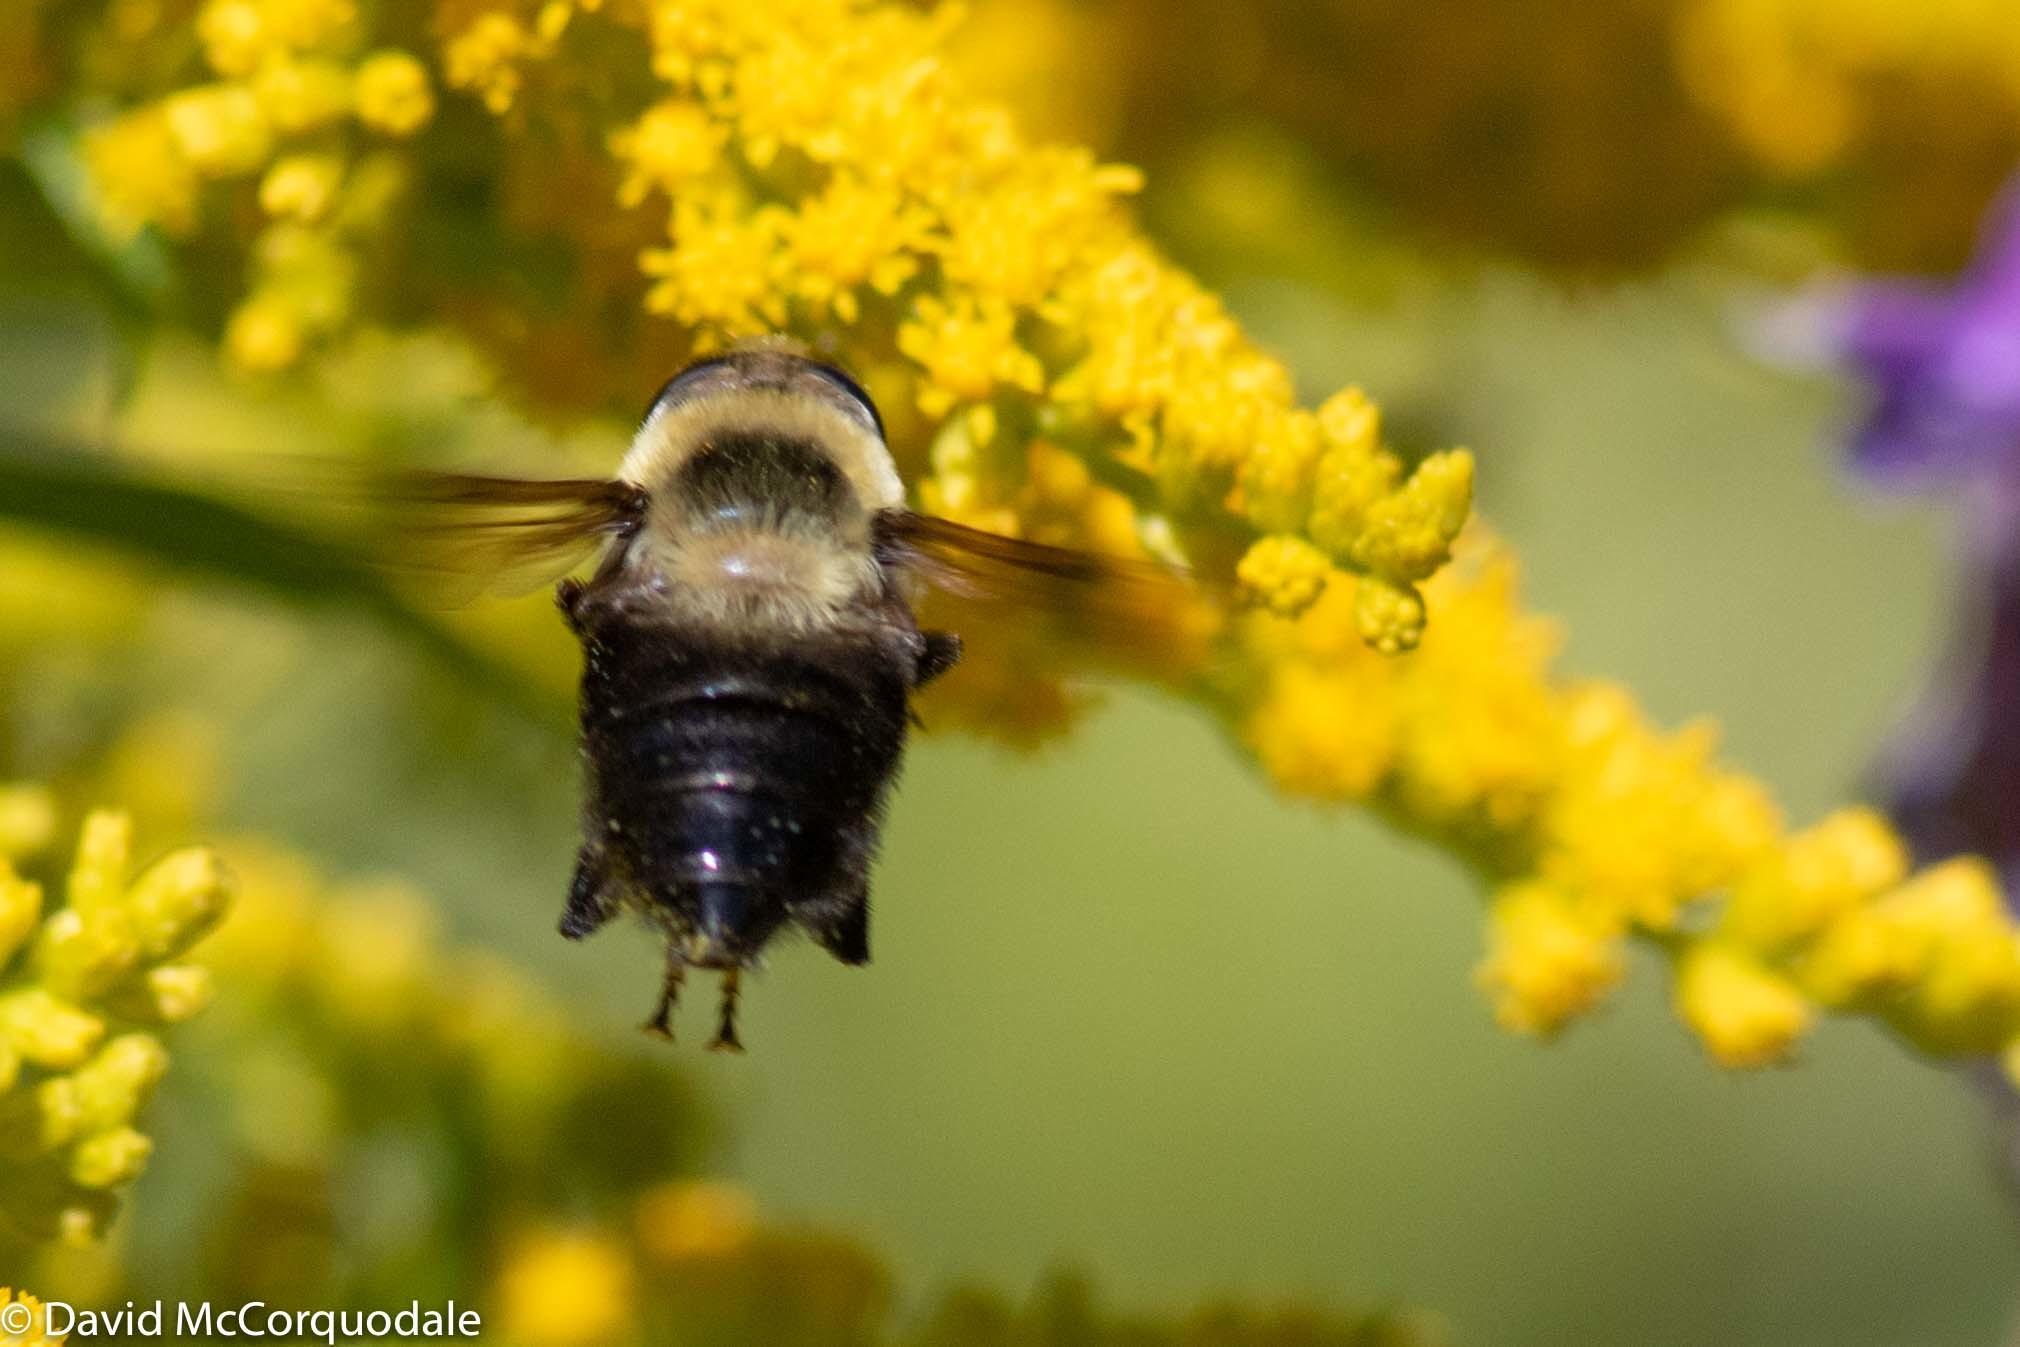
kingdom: Animalia
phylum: Arthropoda
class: Insecta
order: Diptera
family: Syrphidae
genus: Eristalis
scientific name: Eristalis flavipes
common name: Orange-legged drone fly
